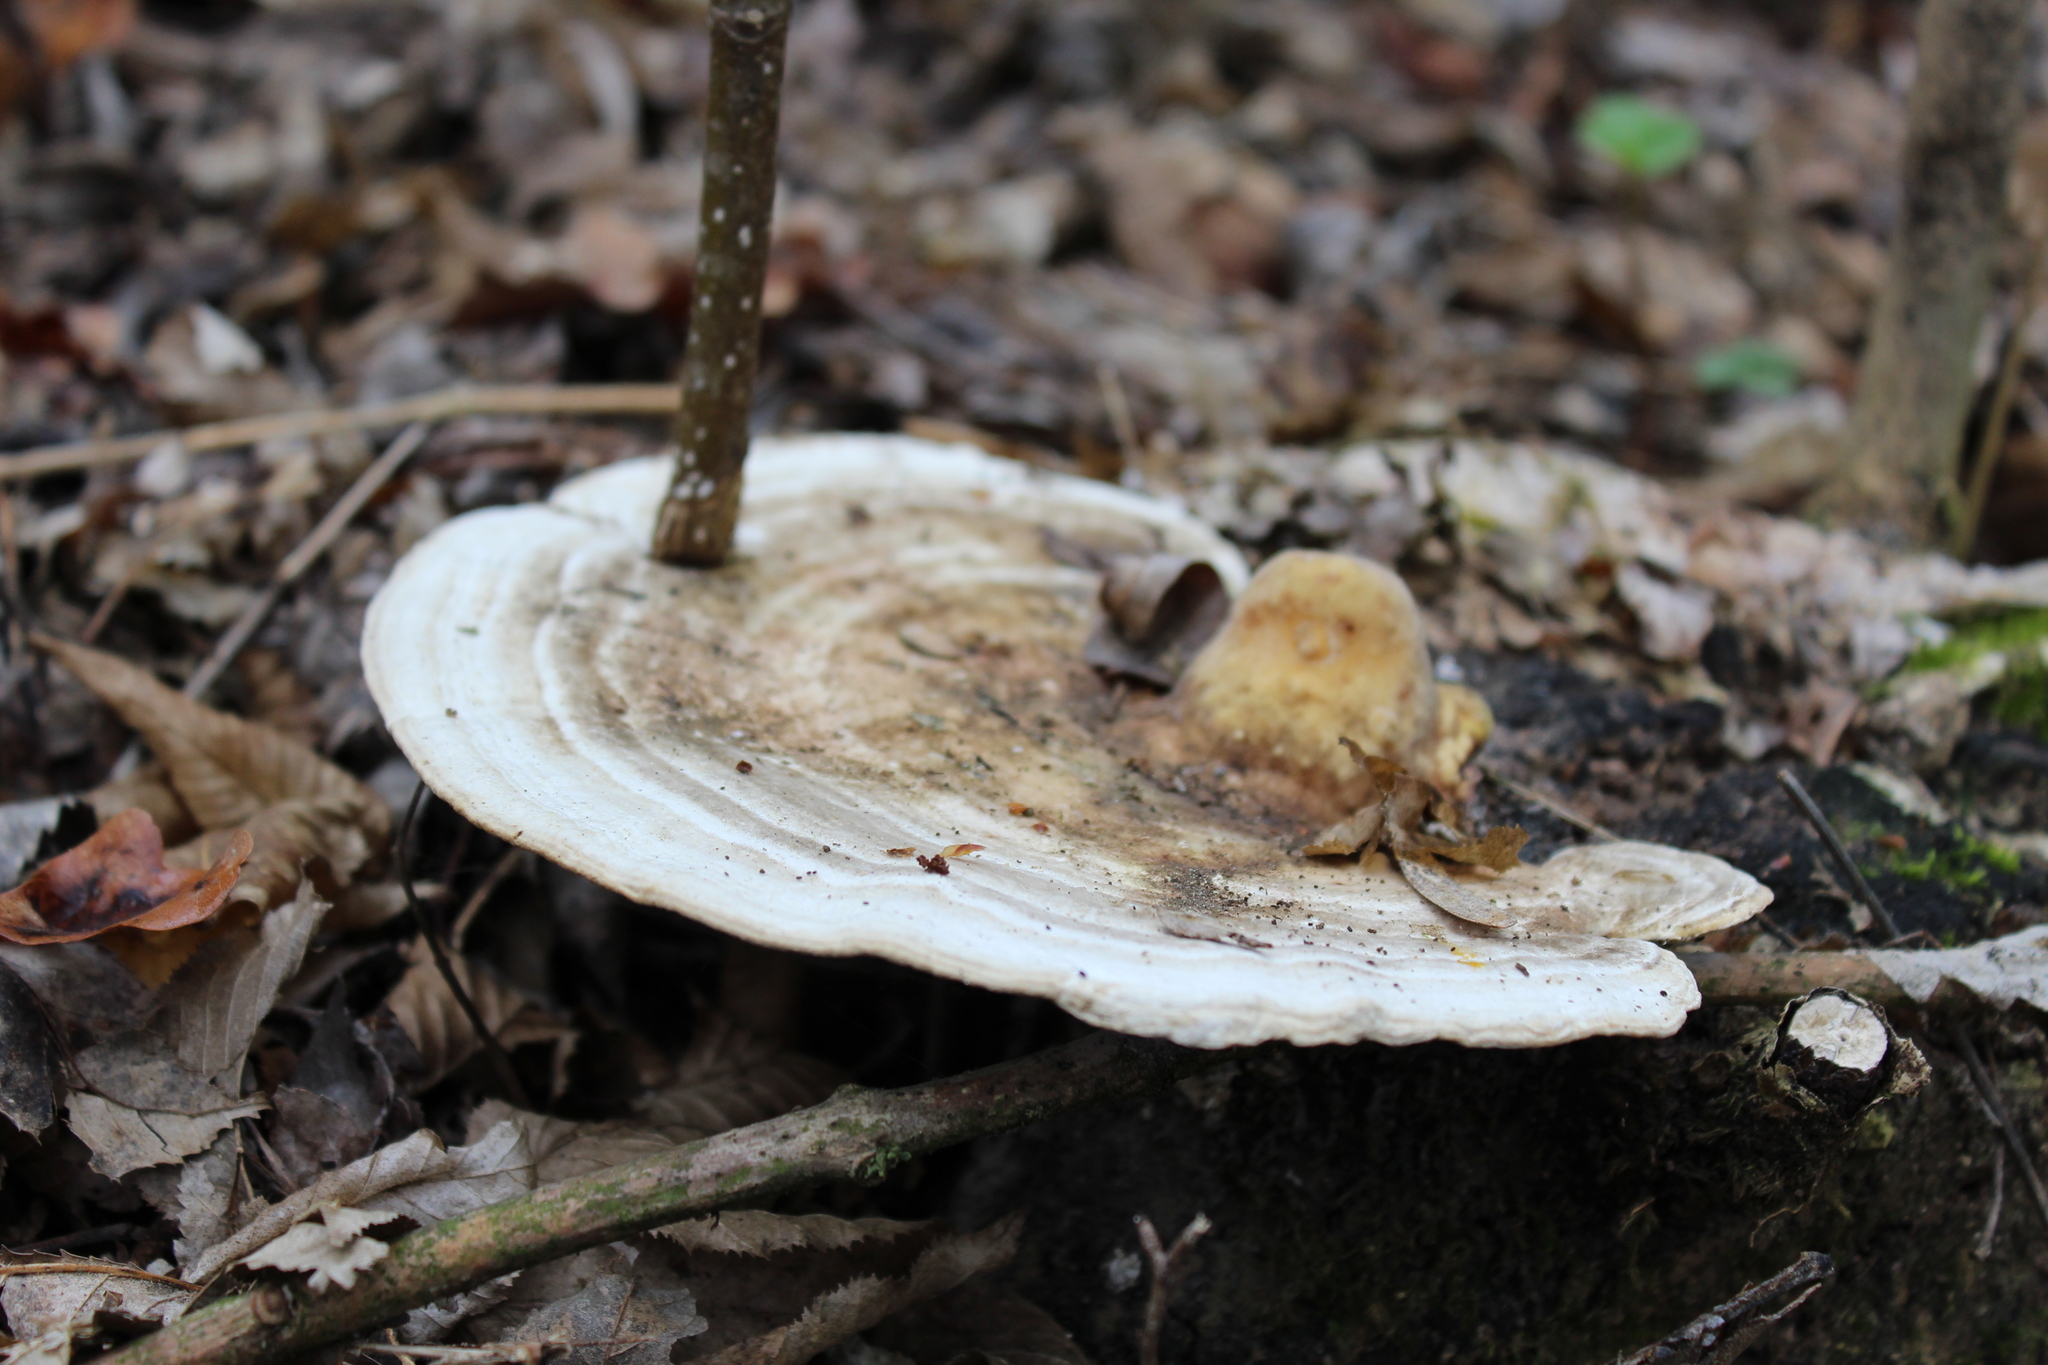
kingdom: Fungi
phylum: Basidiomycota
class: Agaricomycetes
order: Polyporales
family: Polyporaceae
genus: Trametes
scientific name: Trametes gibbosa
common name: Lumpy bracket
